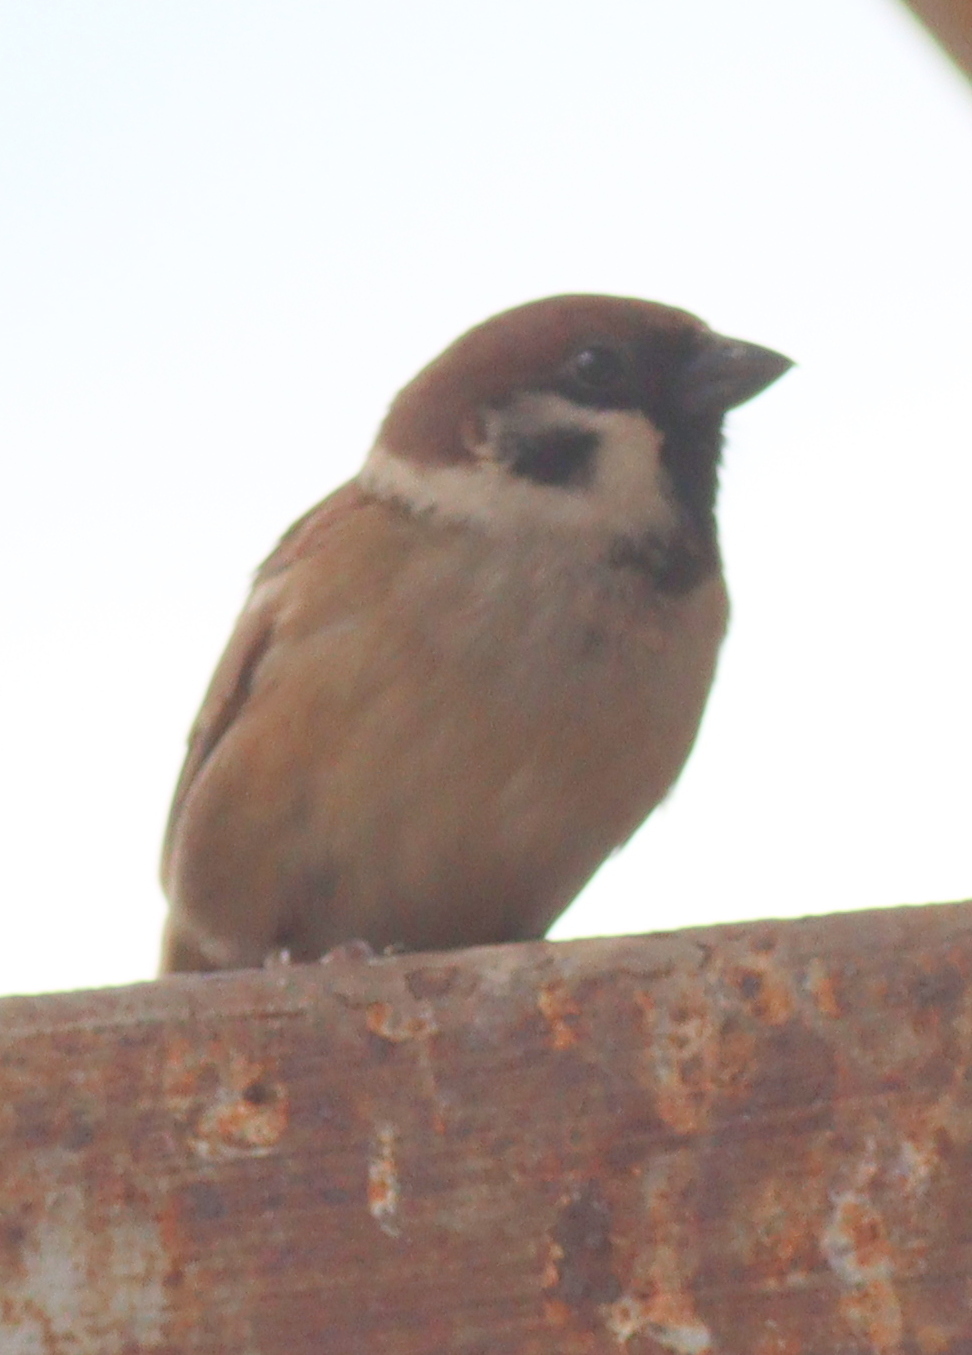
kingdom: Animalia
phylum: Chordata
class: Aves
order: Passeriformes
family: Passeridae
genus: Passer
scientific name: Passer montanus
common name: Eurasian tree sparrow
